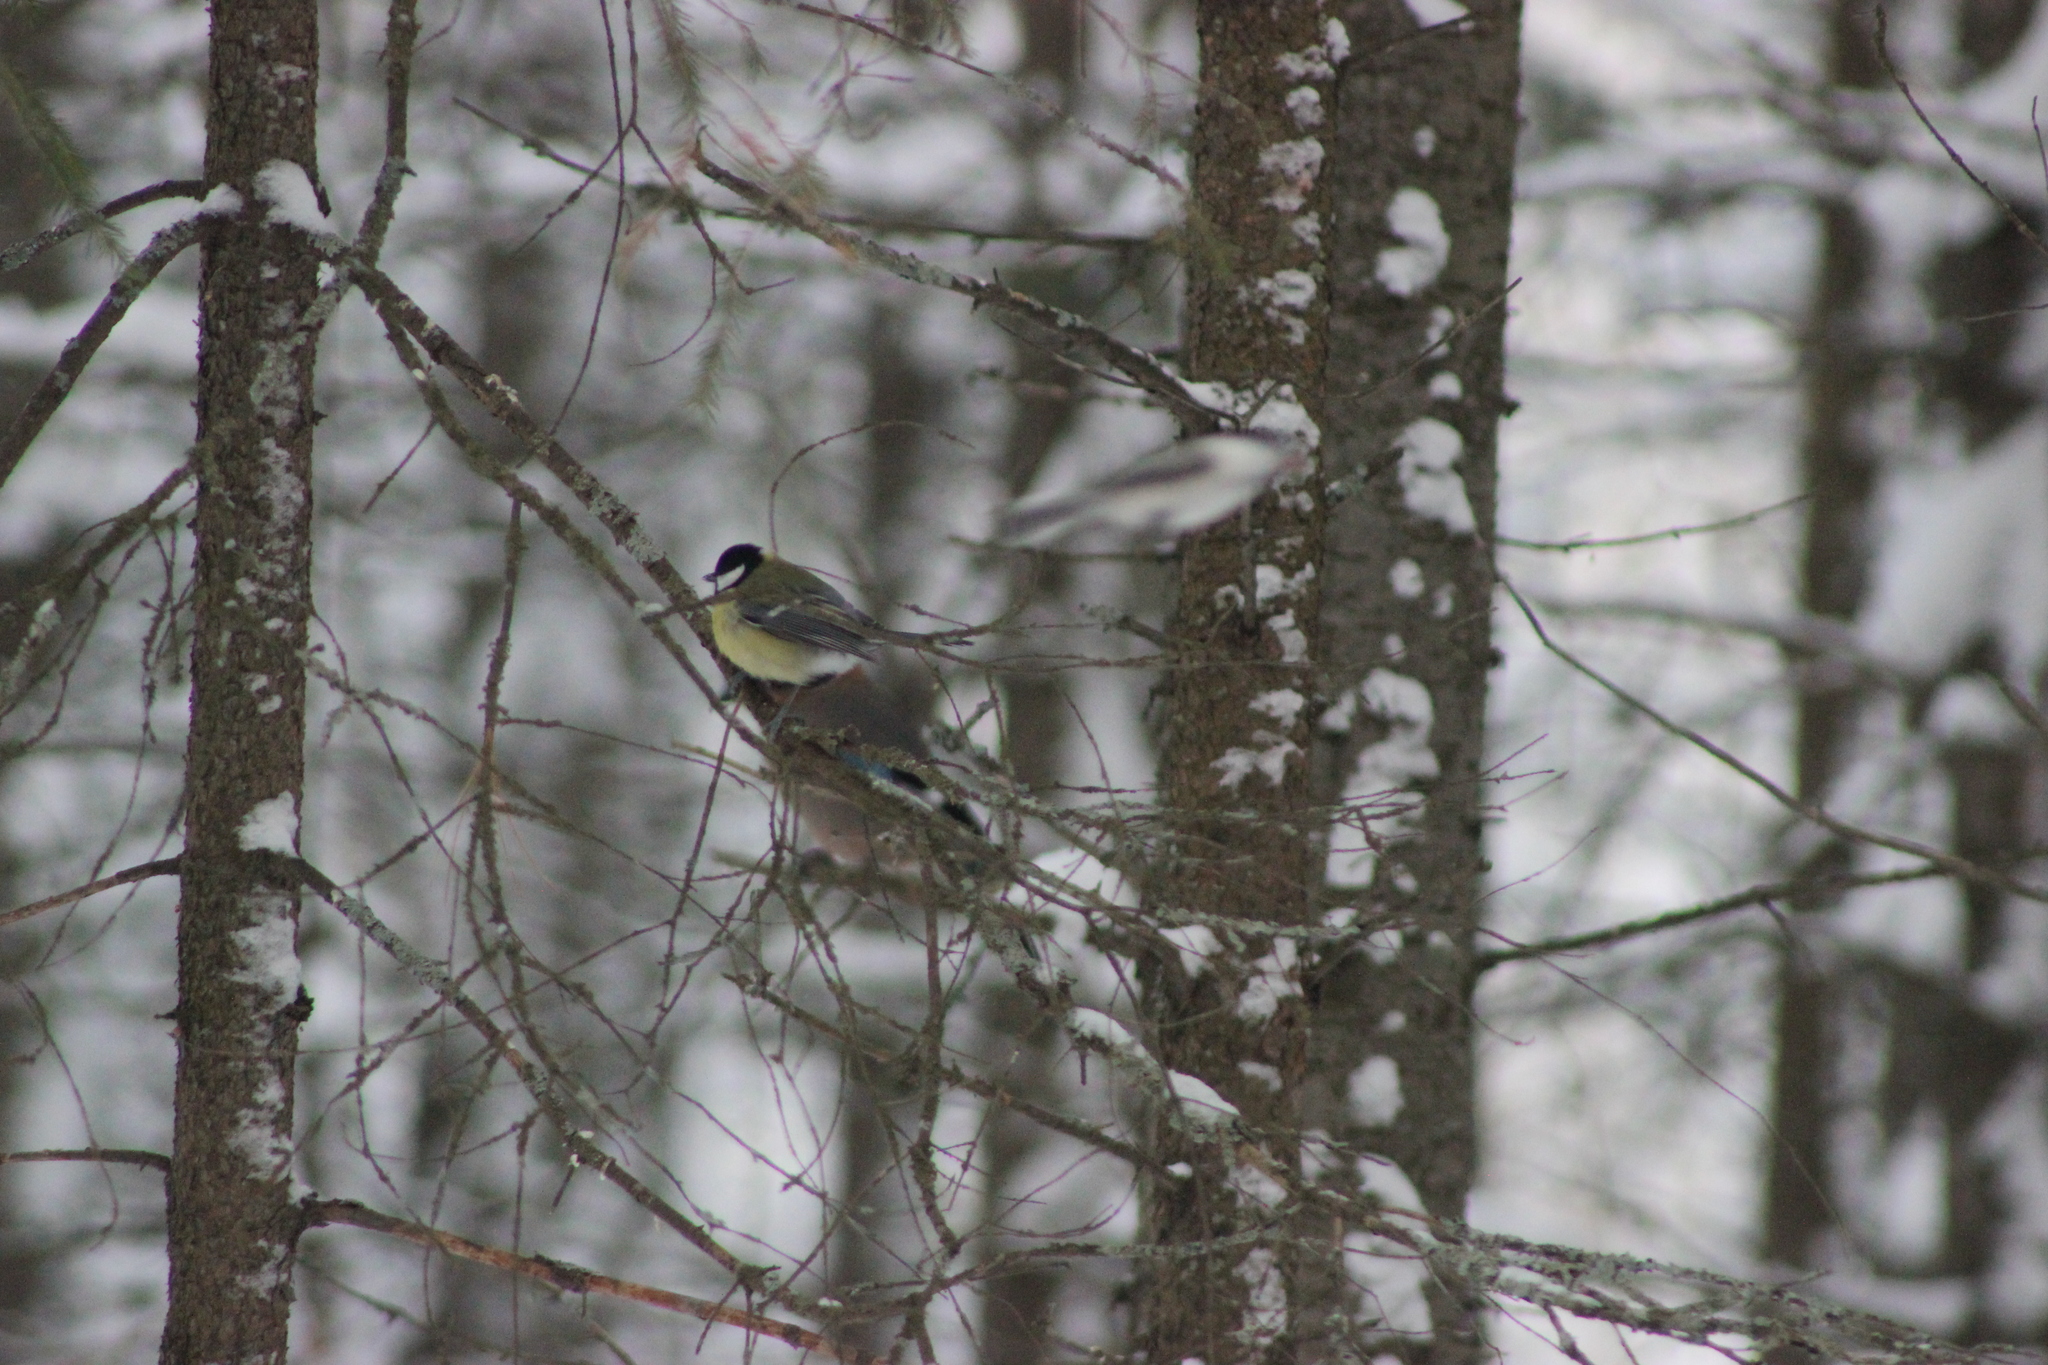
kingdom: Animalia
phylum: Chordata
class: Aves
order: Passeriformes
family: Paridae
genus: Parus
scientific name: Parus major
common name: Great tit
